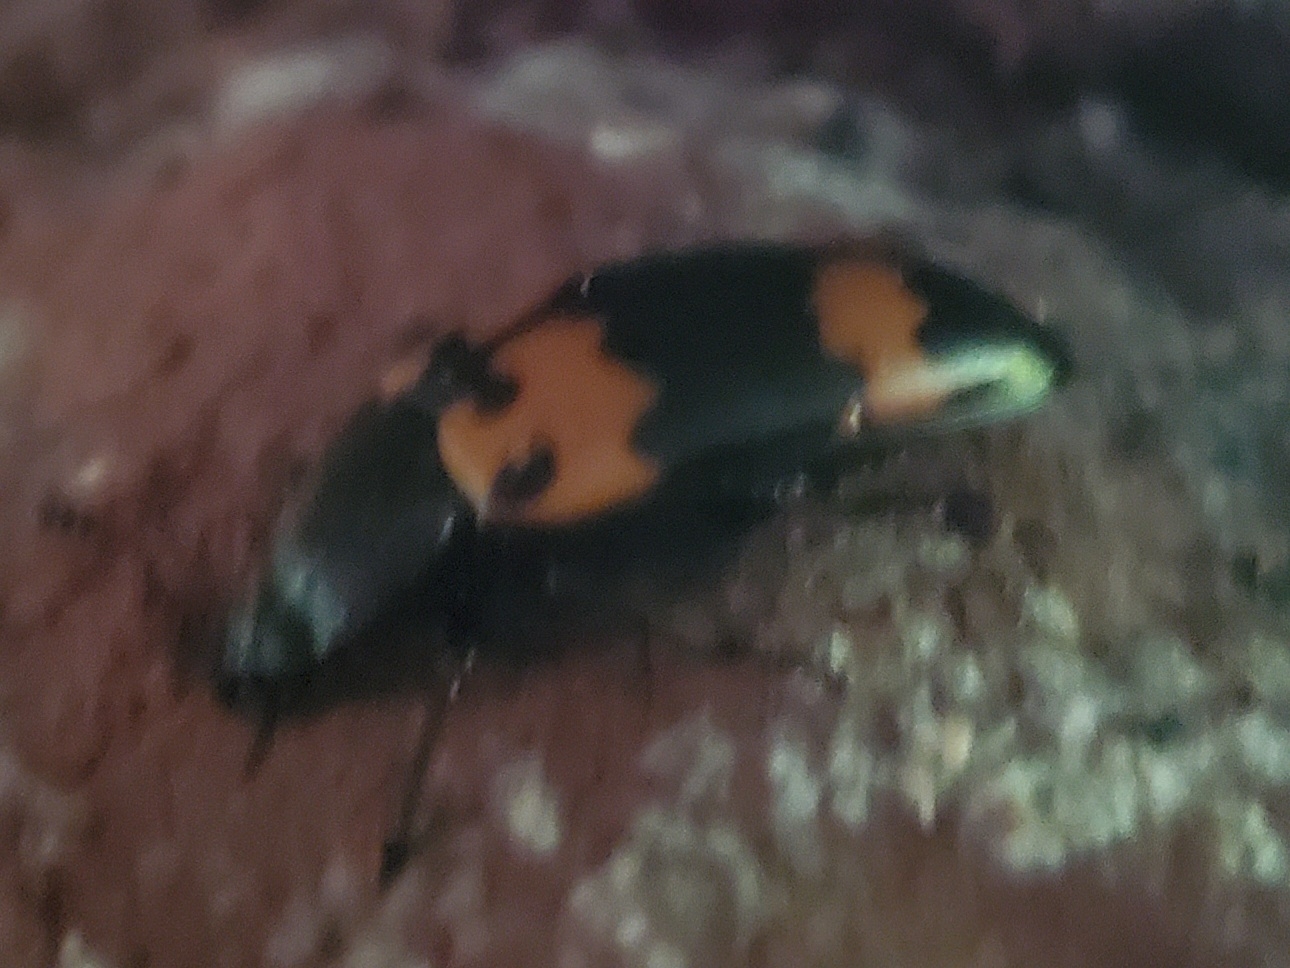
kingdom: Animalia
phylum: Arthropoda
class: Insecta
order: Coleoptera
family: Erotylidae
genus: Megalodacne
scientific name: Megalodacne heros
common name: Pleasing fungus beetle
